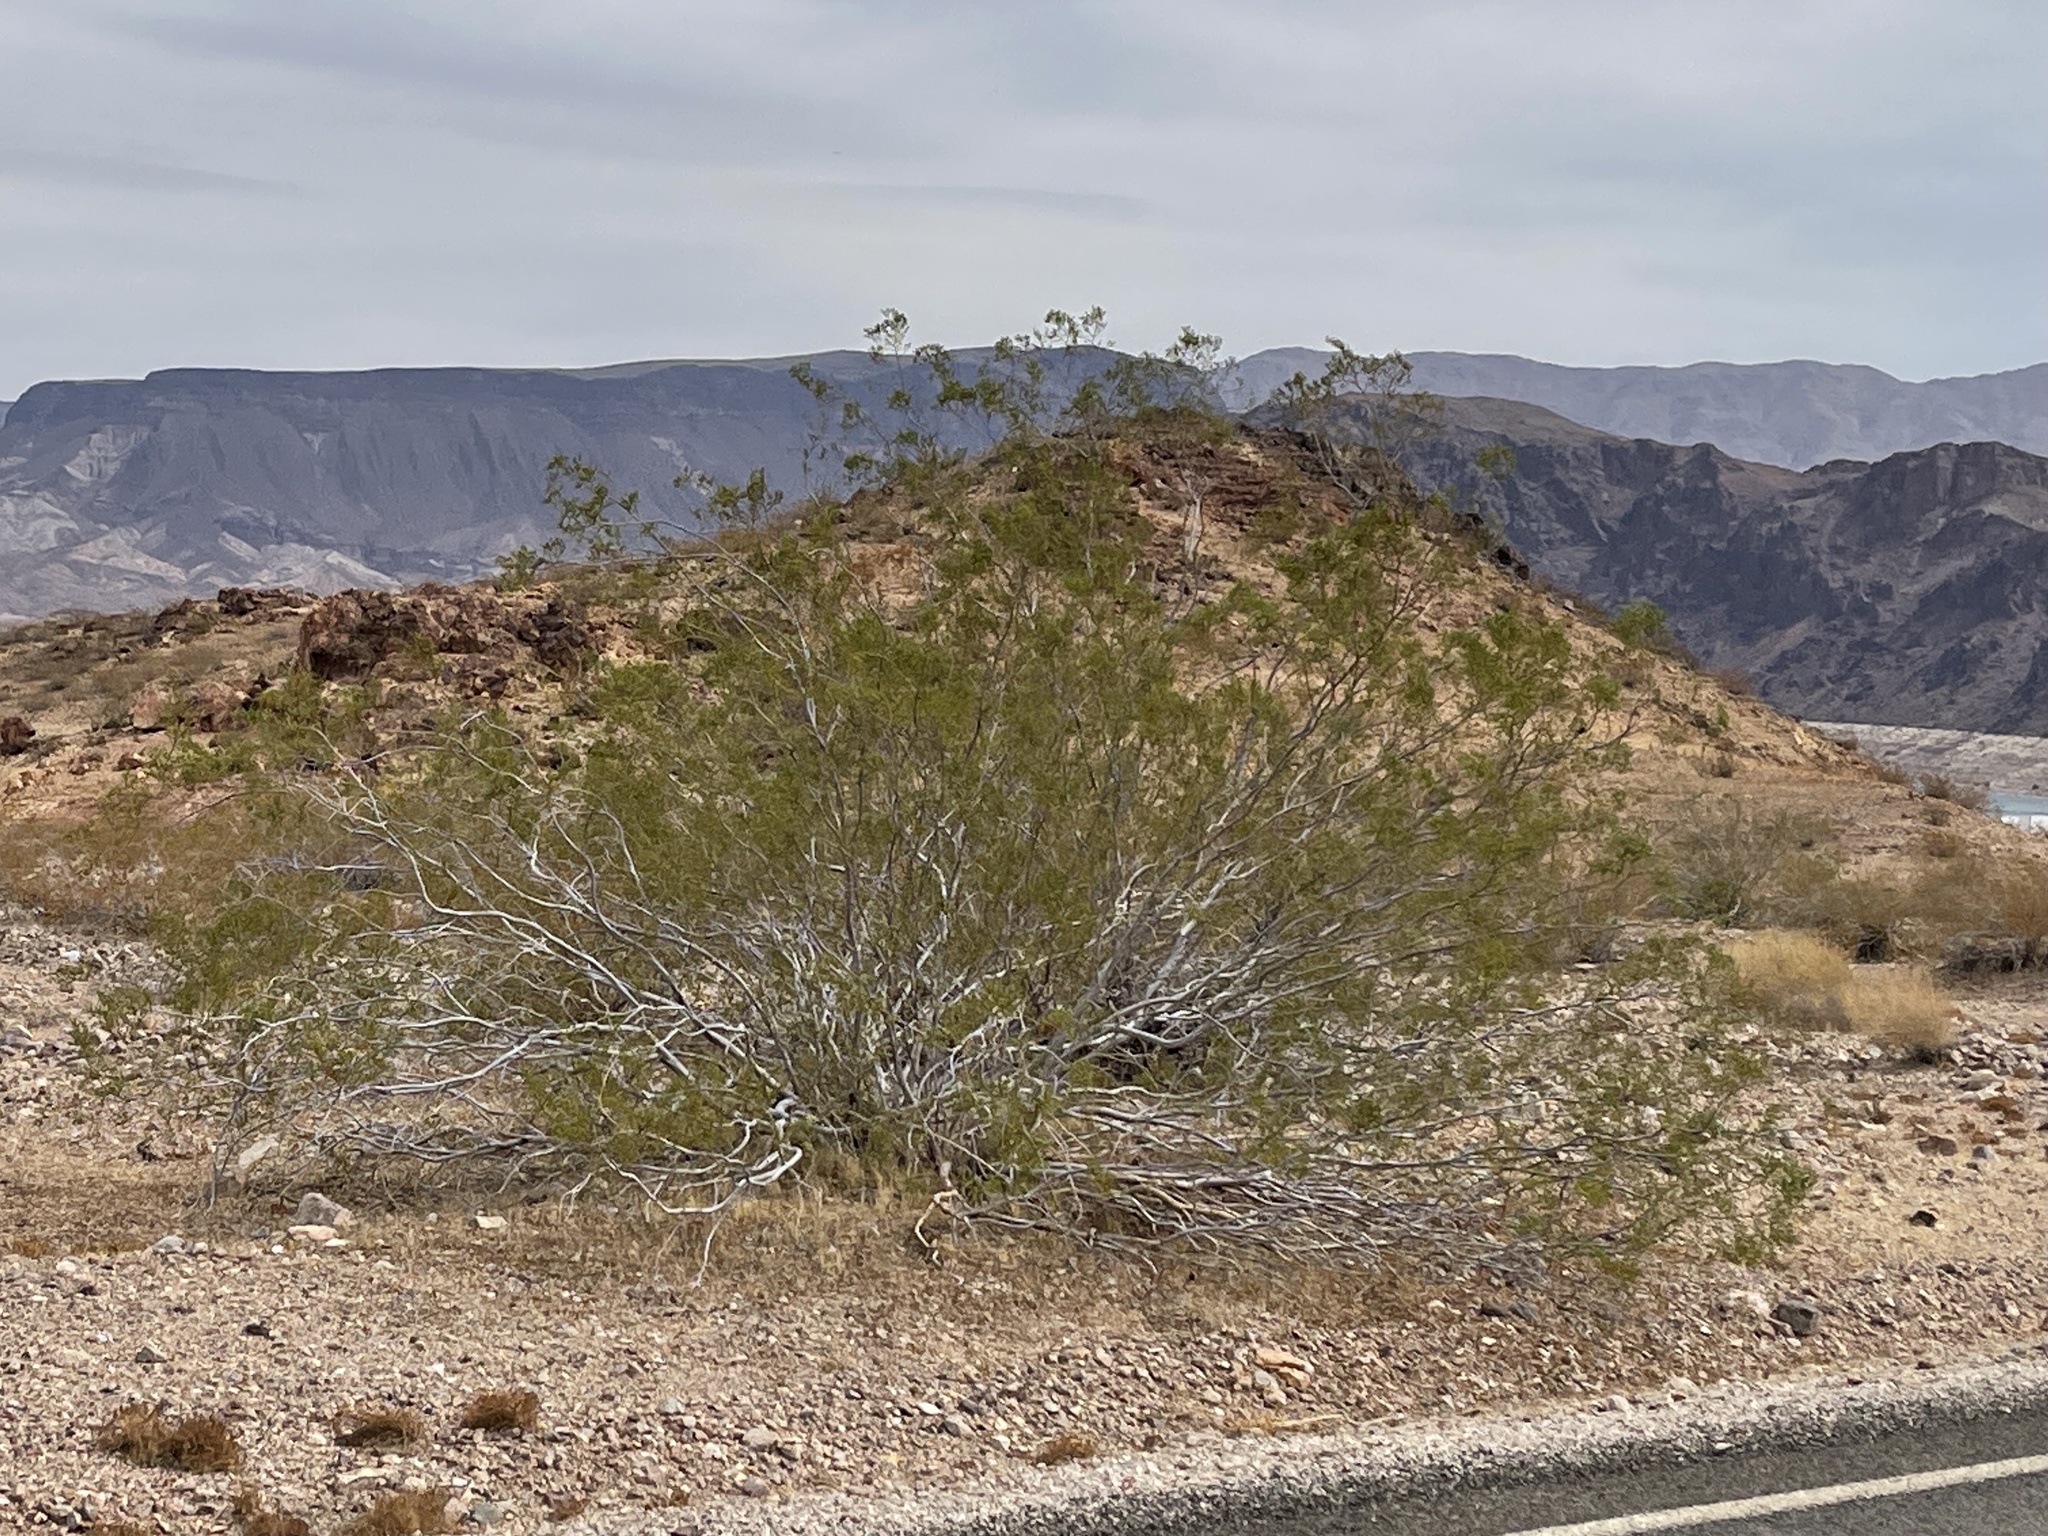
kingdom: Plantae
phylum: Tracheophyta
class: Magnoliopsida
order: Zygophyllales
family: Zygophyllaceae
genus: Larrea
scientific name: Larrea tridentata
